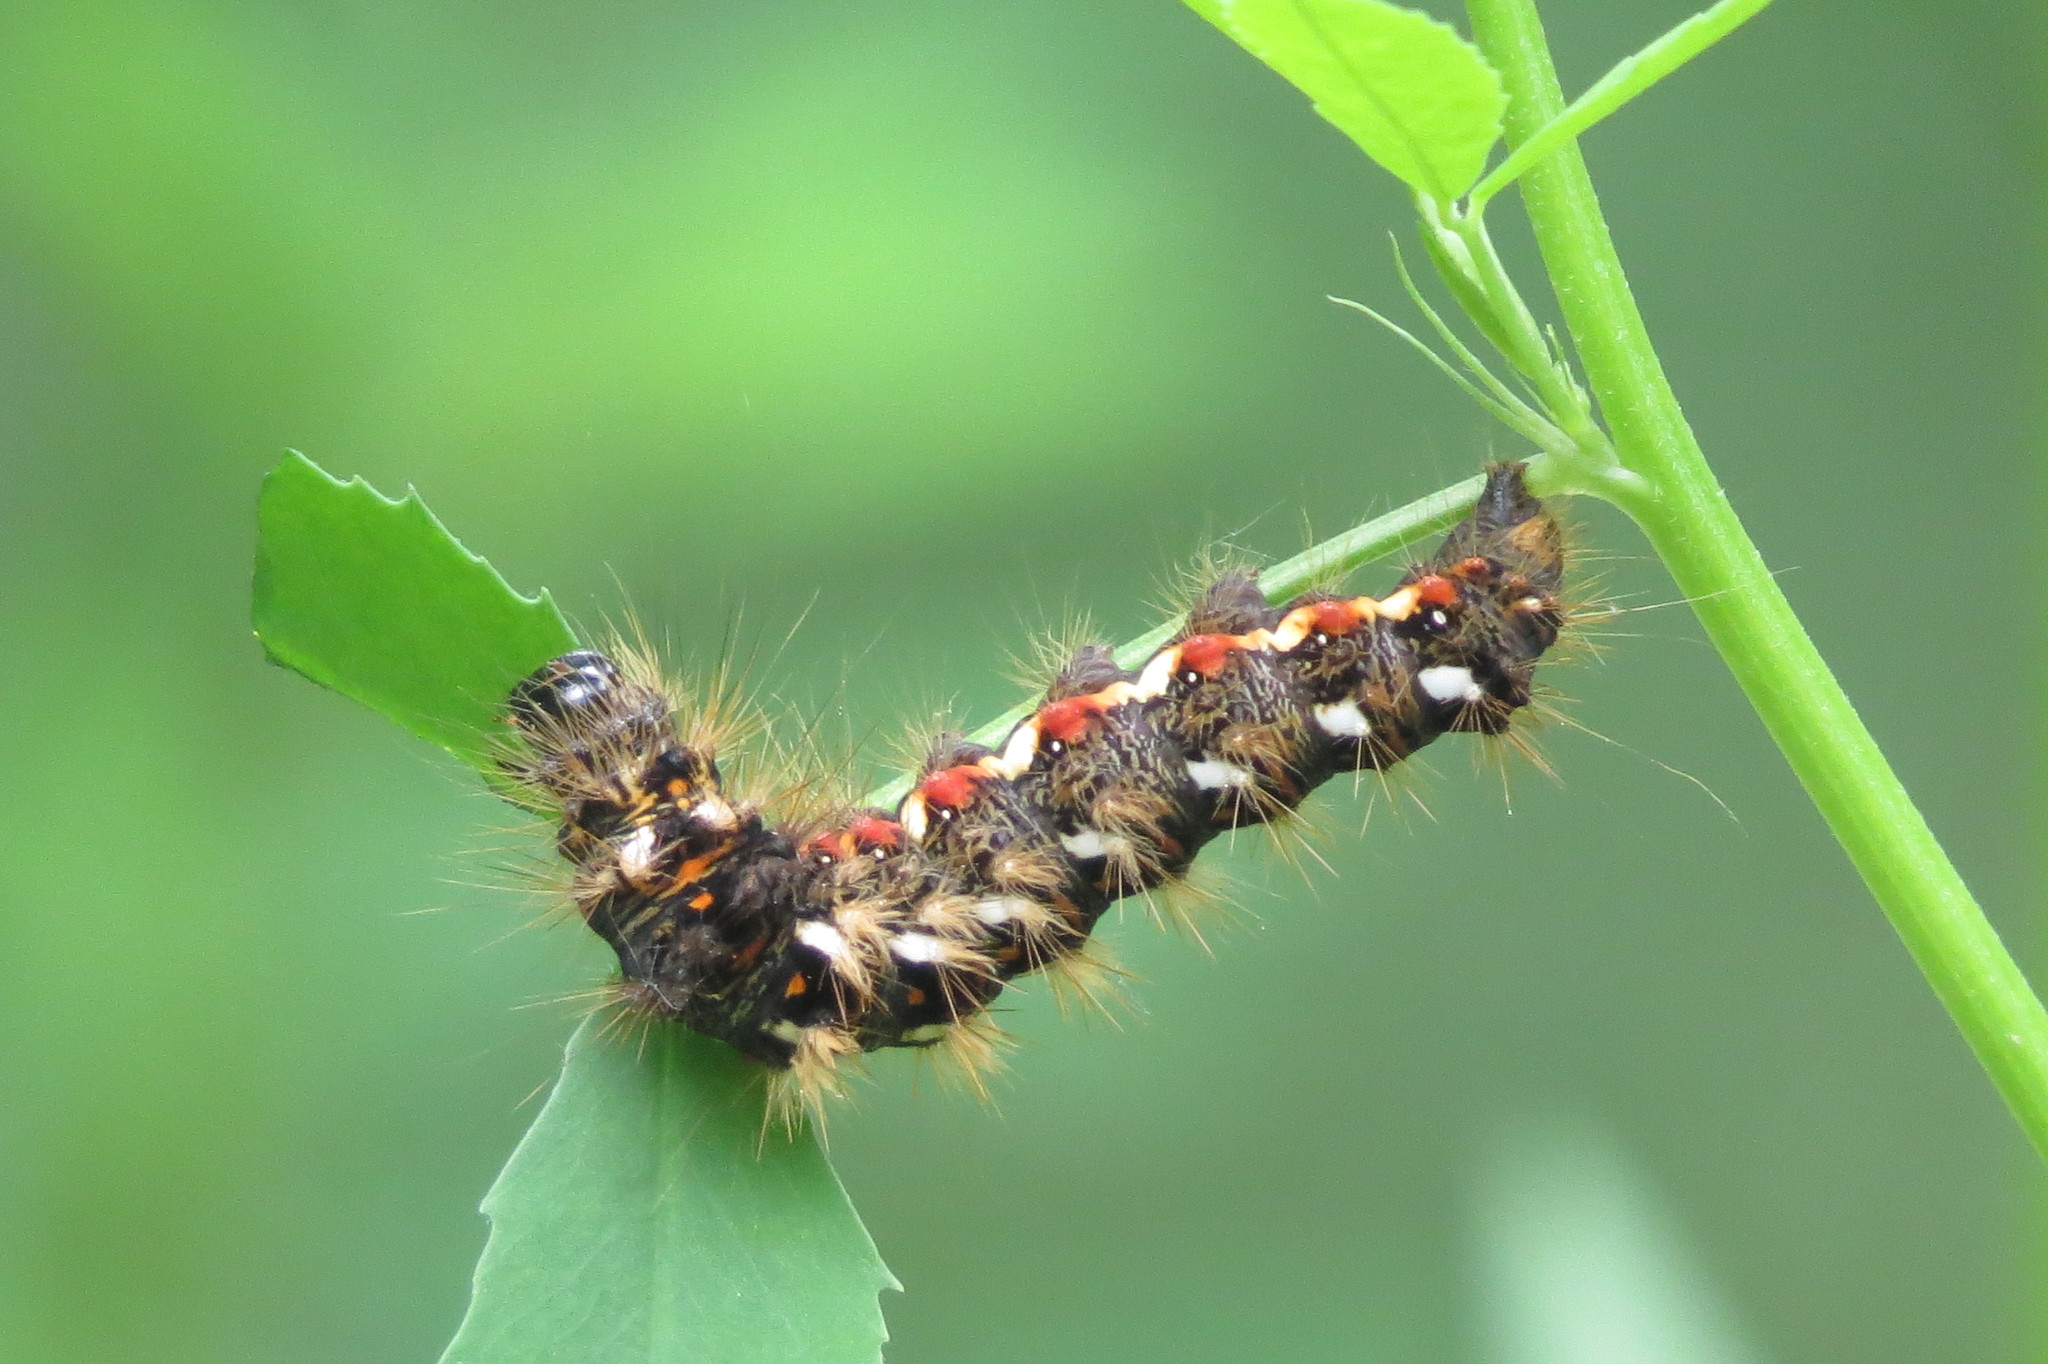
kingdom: Animalia
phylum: Arthropoda
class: Insecta
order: Lepidoptera
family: Noctuidae
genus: Acronicta
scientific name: Acronicta rumicis
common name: Knot grass
